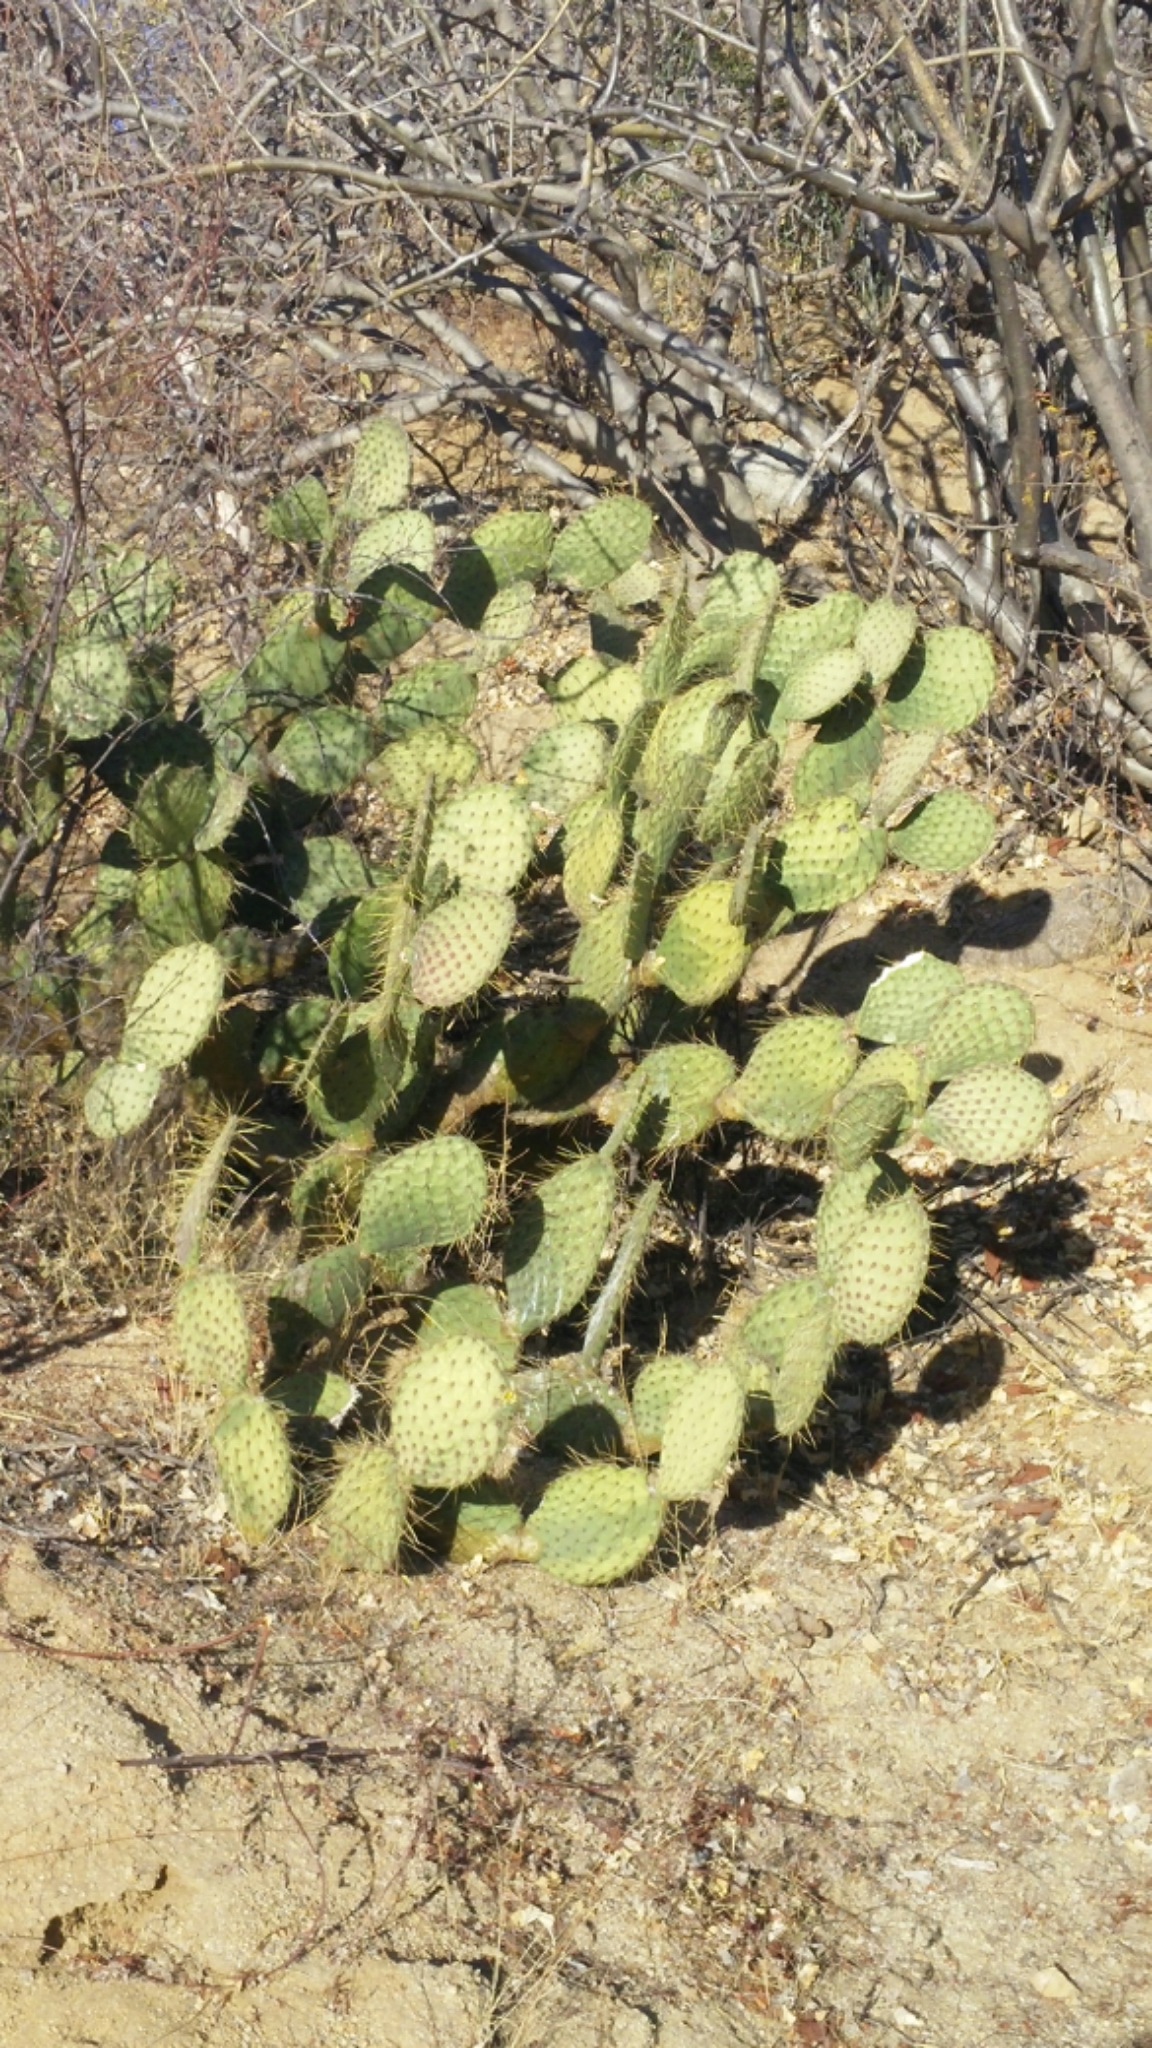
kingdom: Plantae
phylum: Tracheophyta
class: Magnoliopsida
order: Caryophyllales
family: Cactaceae
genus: Opuntia
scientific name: Opuntia tapona
